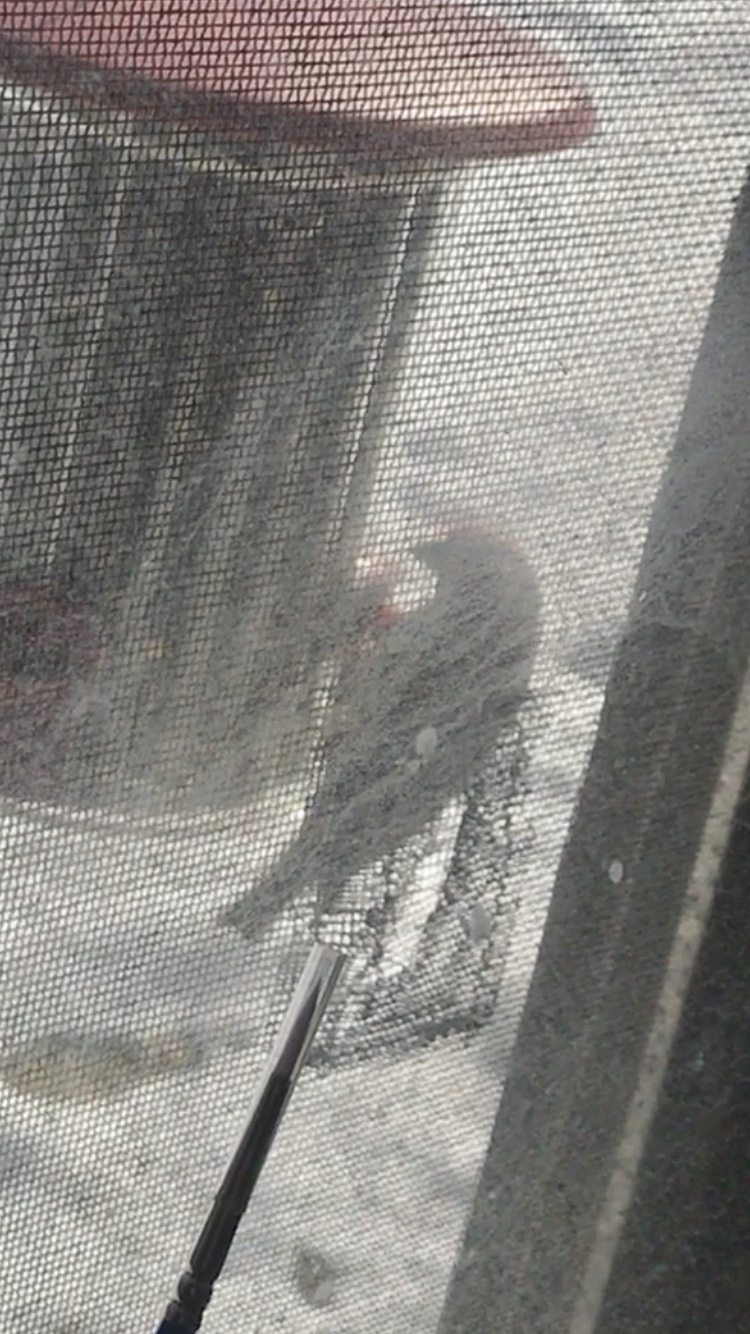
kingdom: Animalia
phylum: Chordata
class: Aves
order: Passeriformes
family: Fringillidae
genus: Haemorhous
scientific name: Haemorhous mexicanus
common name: House finch
